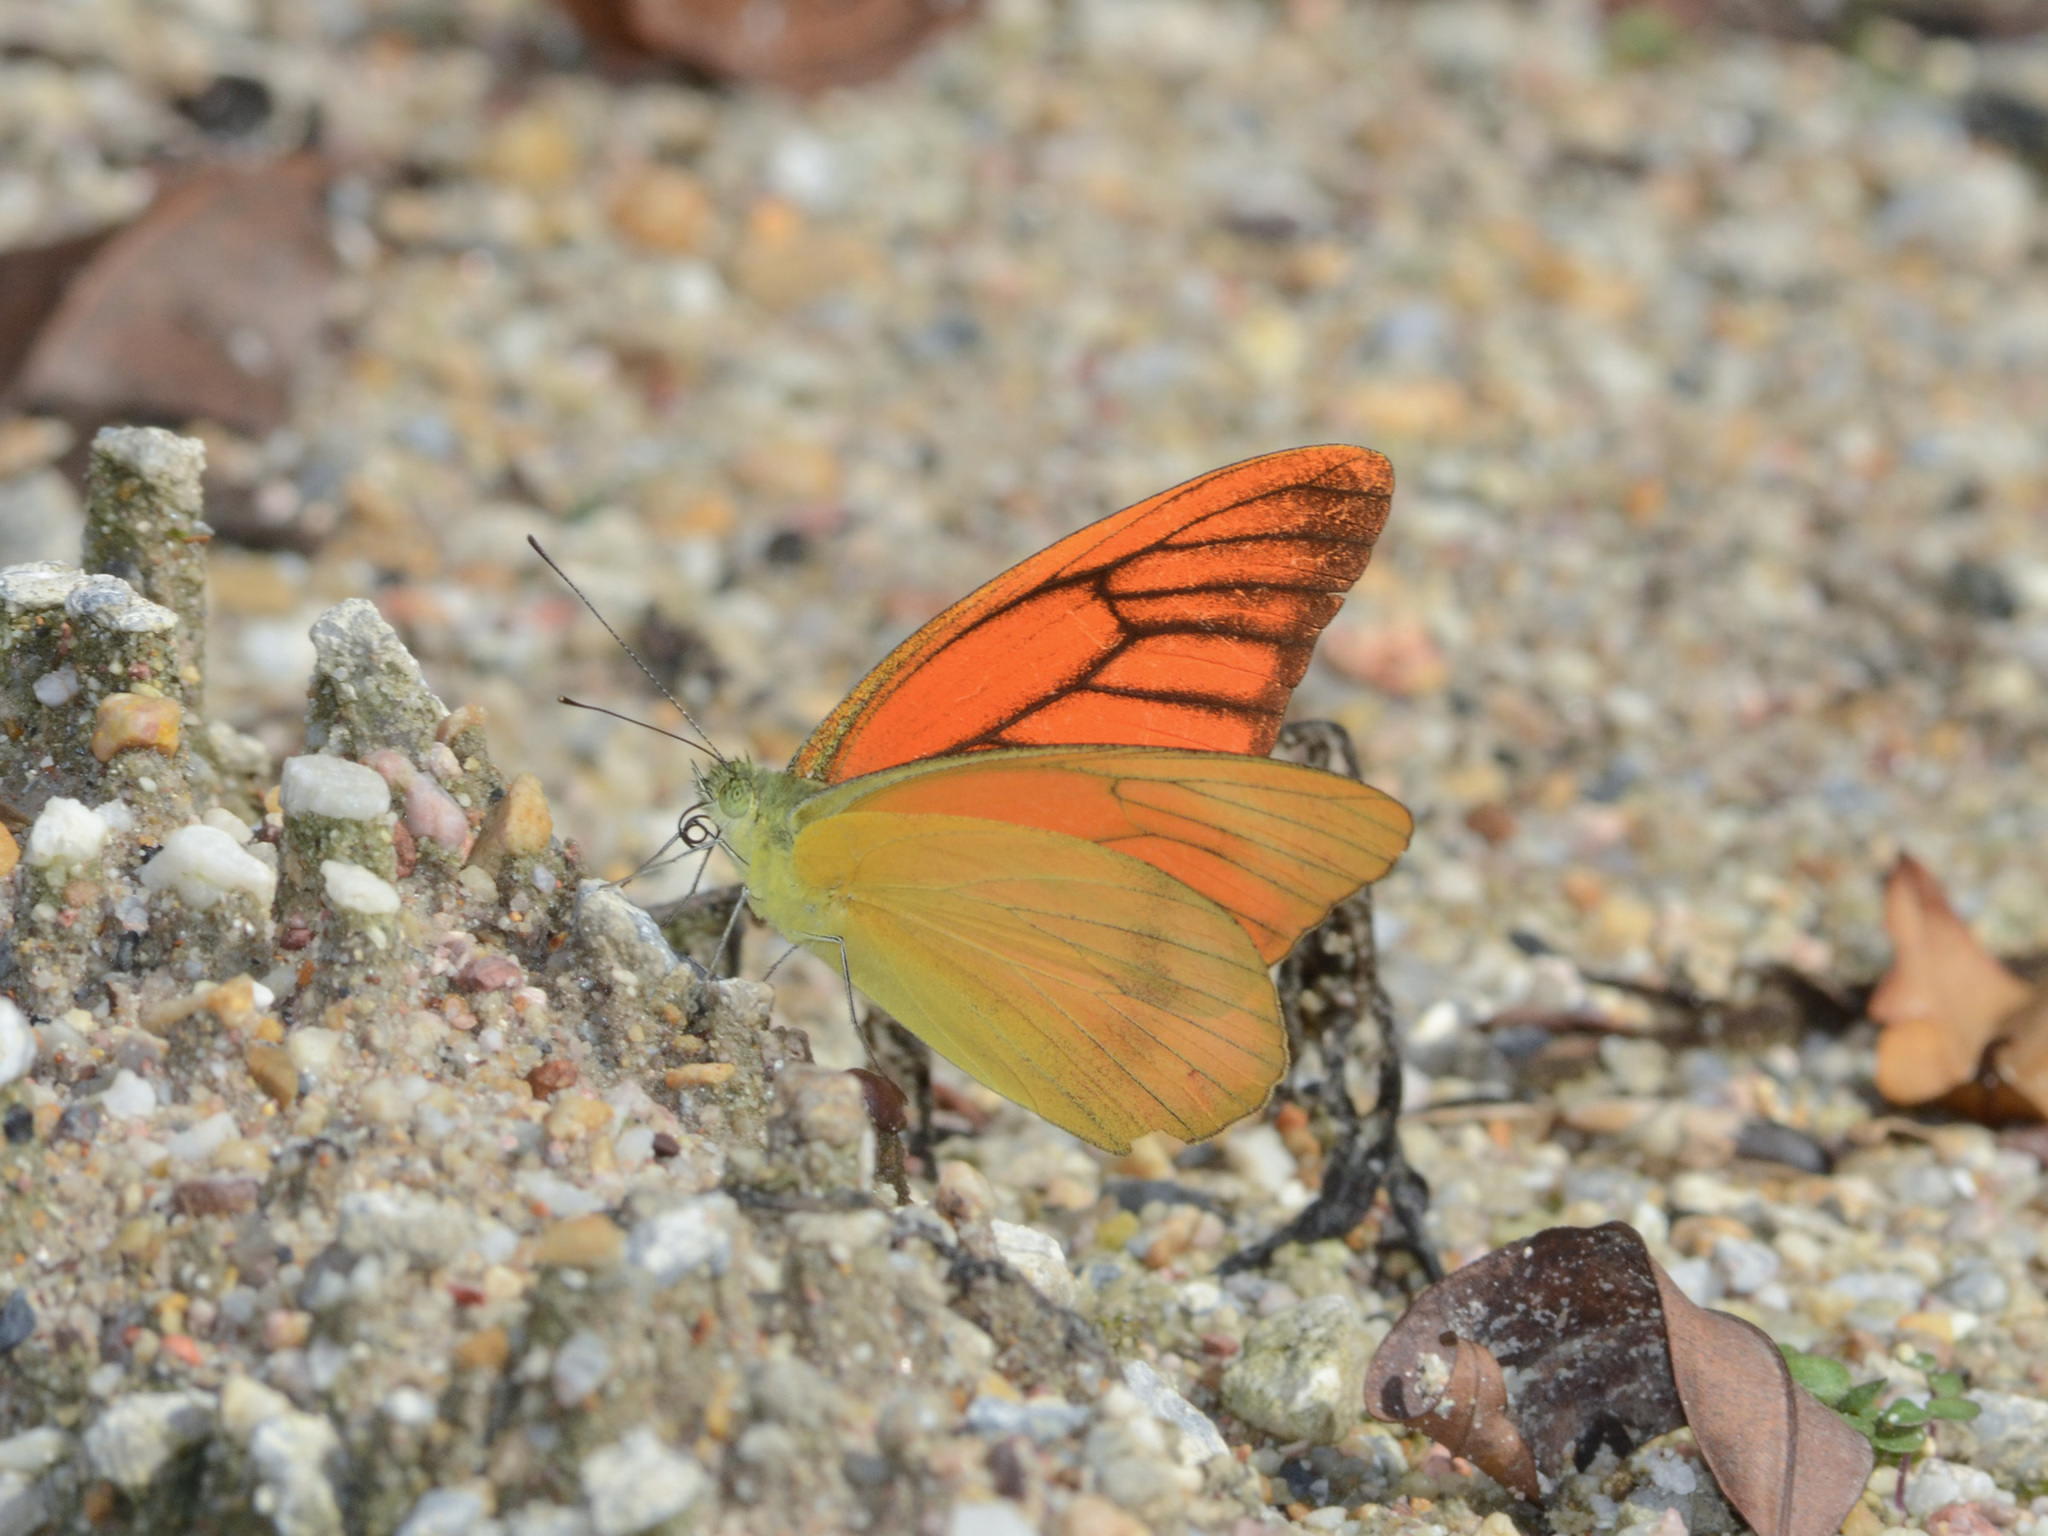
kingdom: Animalia
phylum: Arthropoda
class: Insecta
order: Lepidoptera
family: Pieridae
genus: Appias
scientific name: Appias nero
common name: Orange albatross
